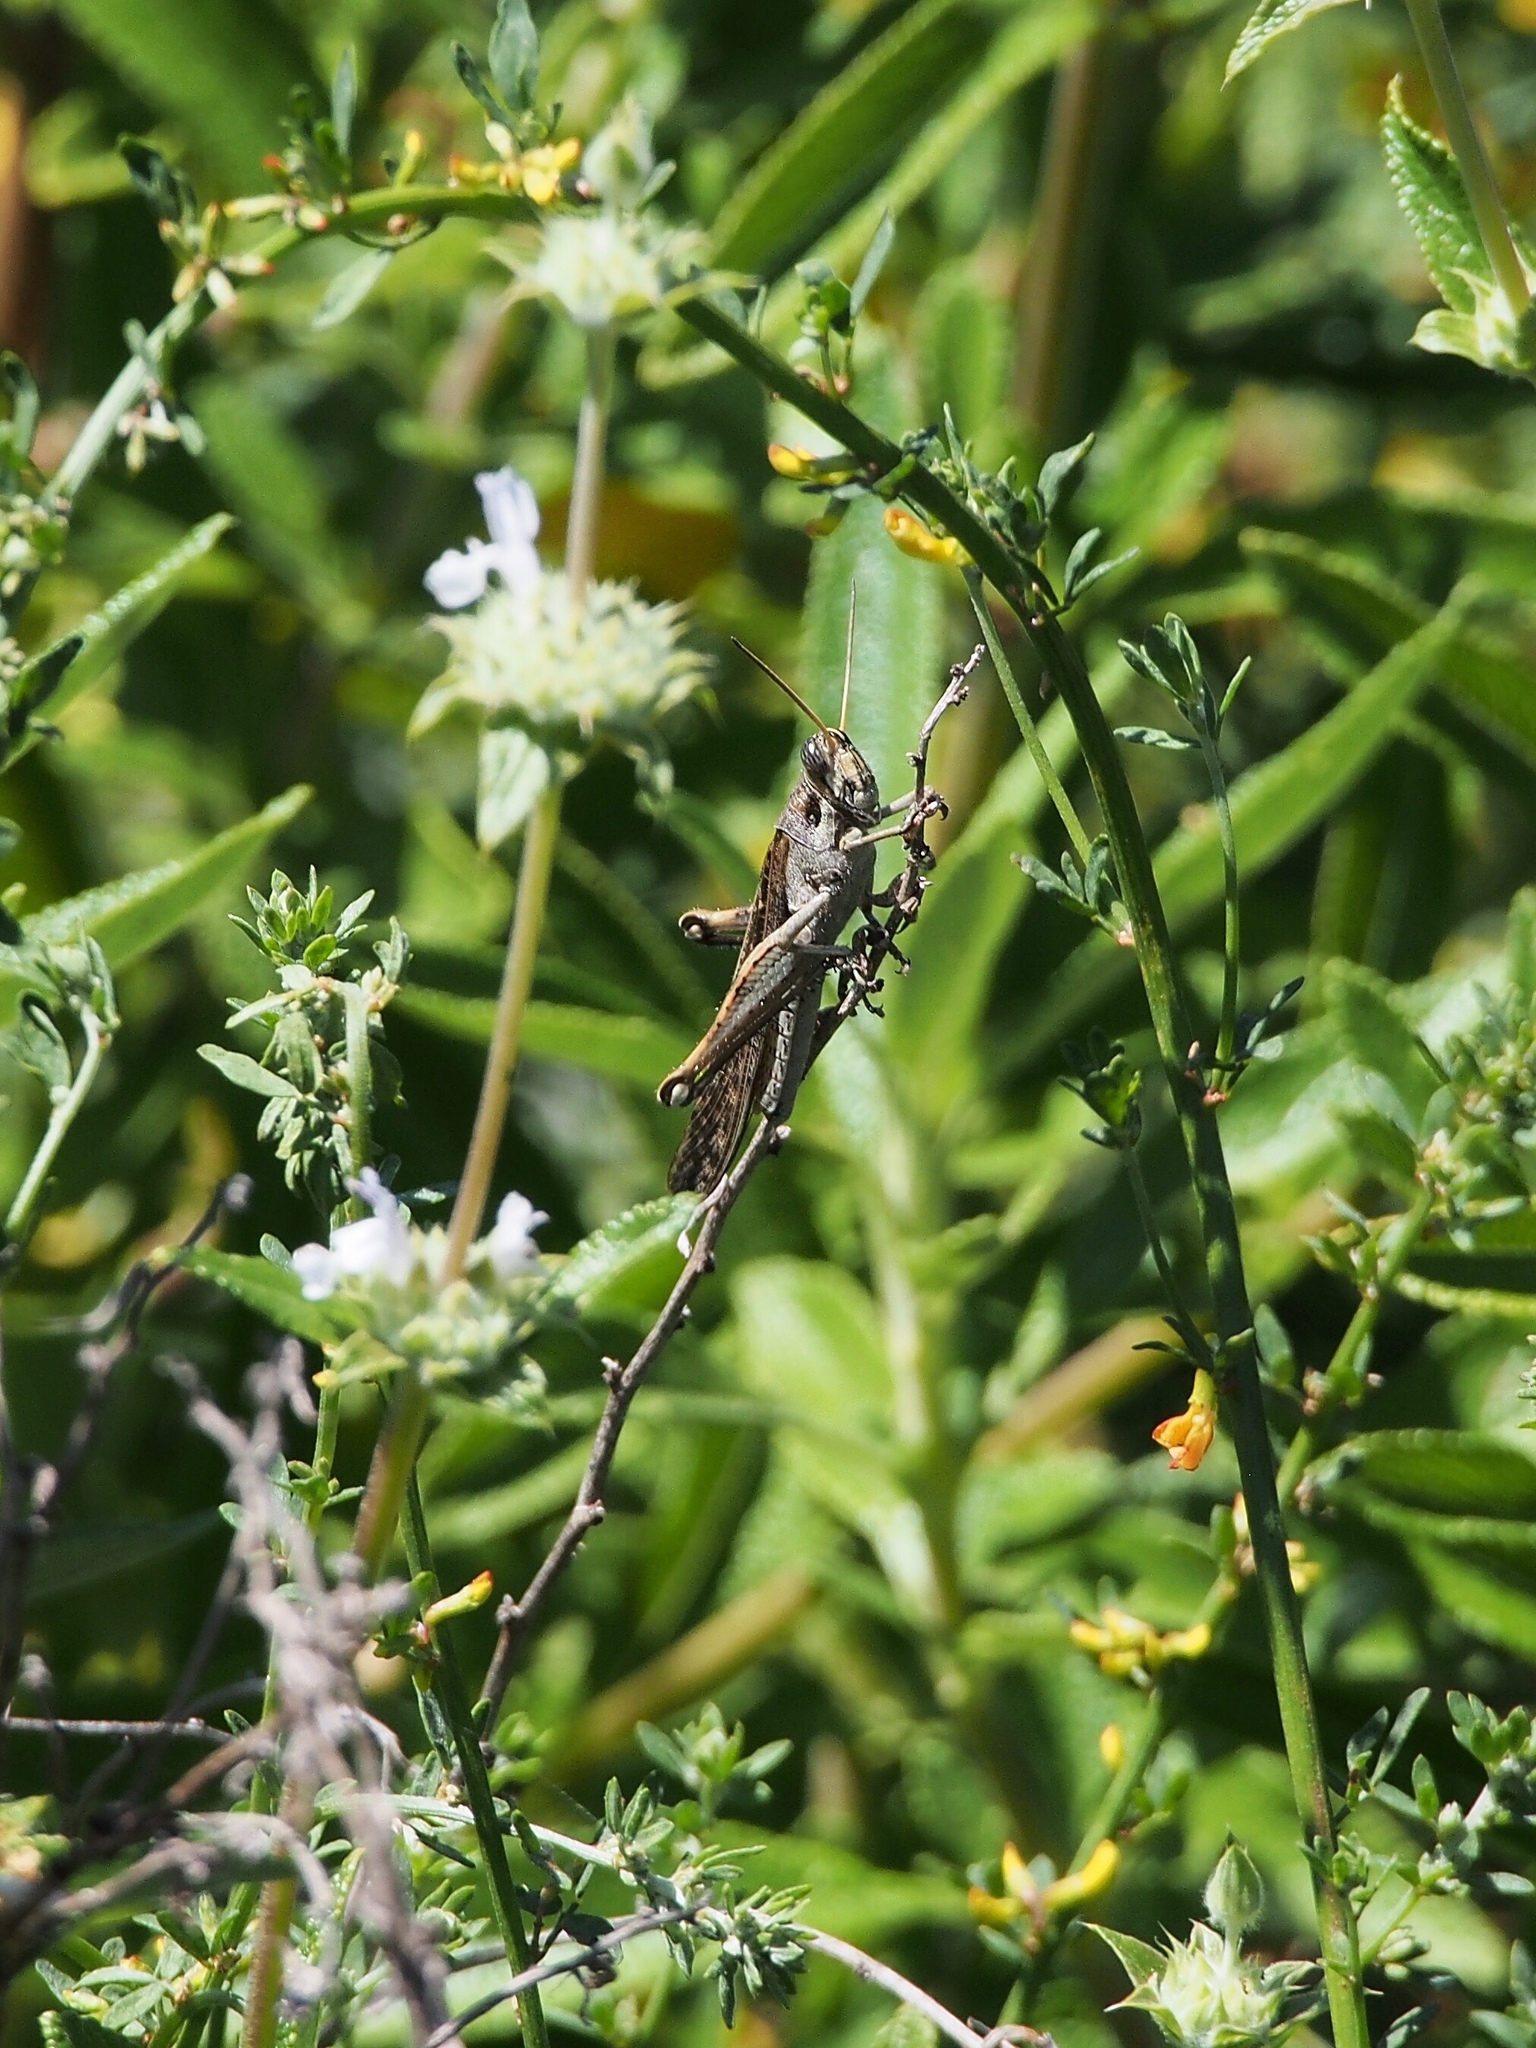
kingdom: Animalia
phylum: Arthropoda
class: Insecta
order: Orthoptera
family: Acrididae
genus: Schistocerca
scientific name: Schistocerca nitens
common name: Vagrant grasshopper
